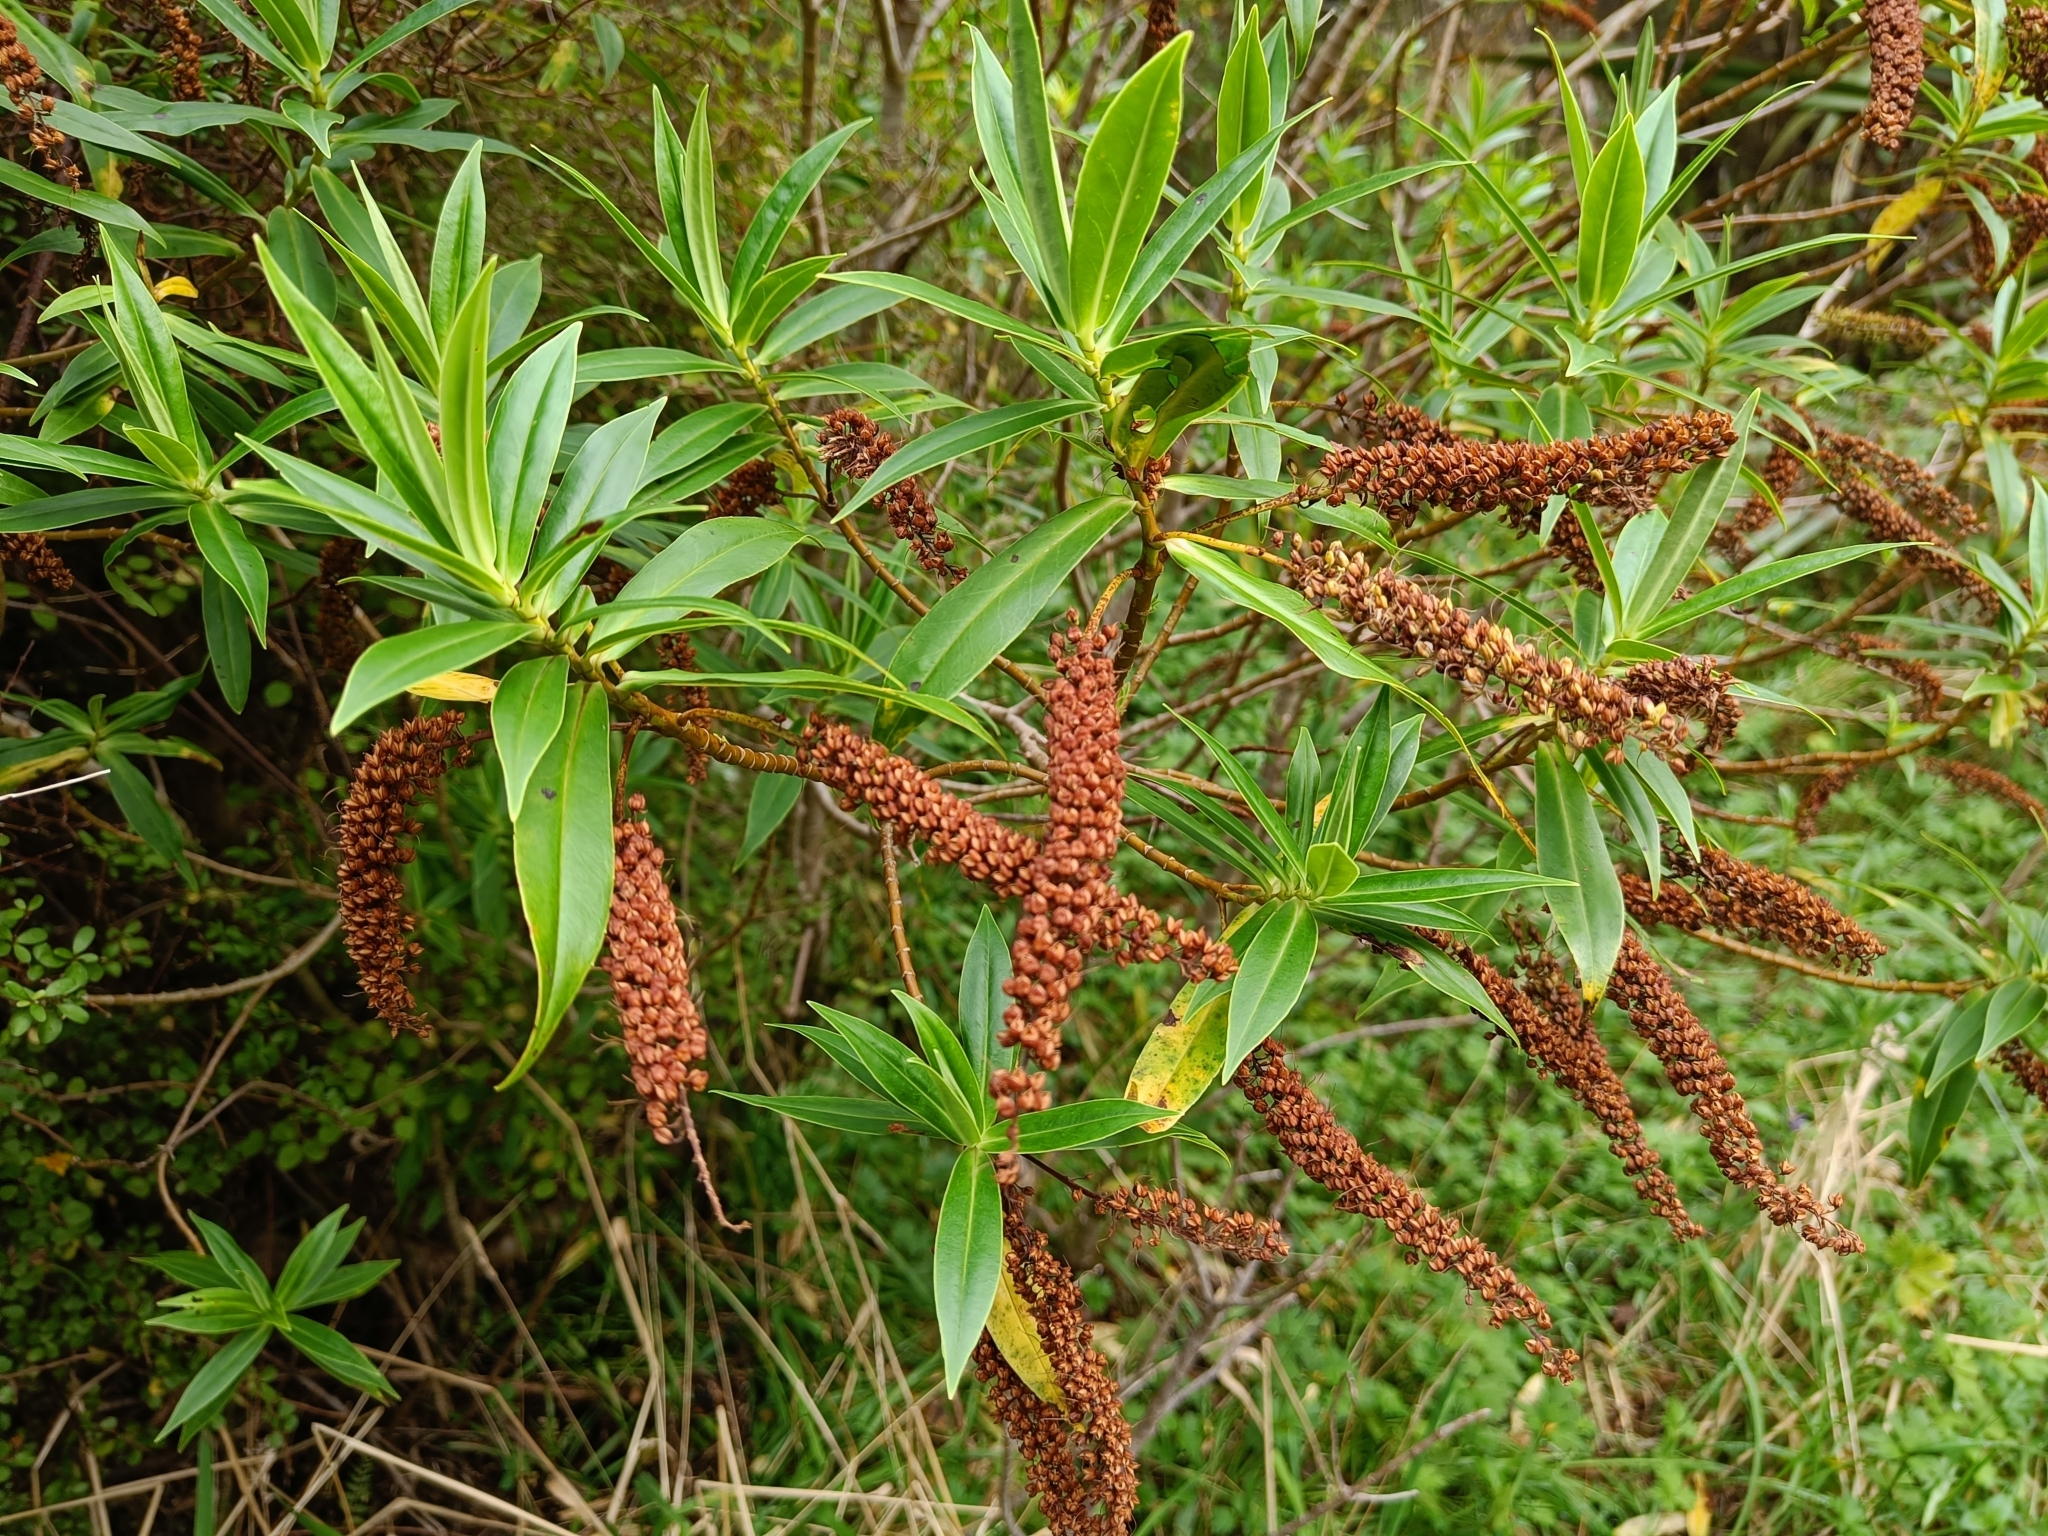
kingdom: Plantae
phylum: Tracheophyta
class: Magnoliopsida
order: Lamiales
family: Plantaginaceae
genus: Veronica
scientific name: Veronica salicifolia
